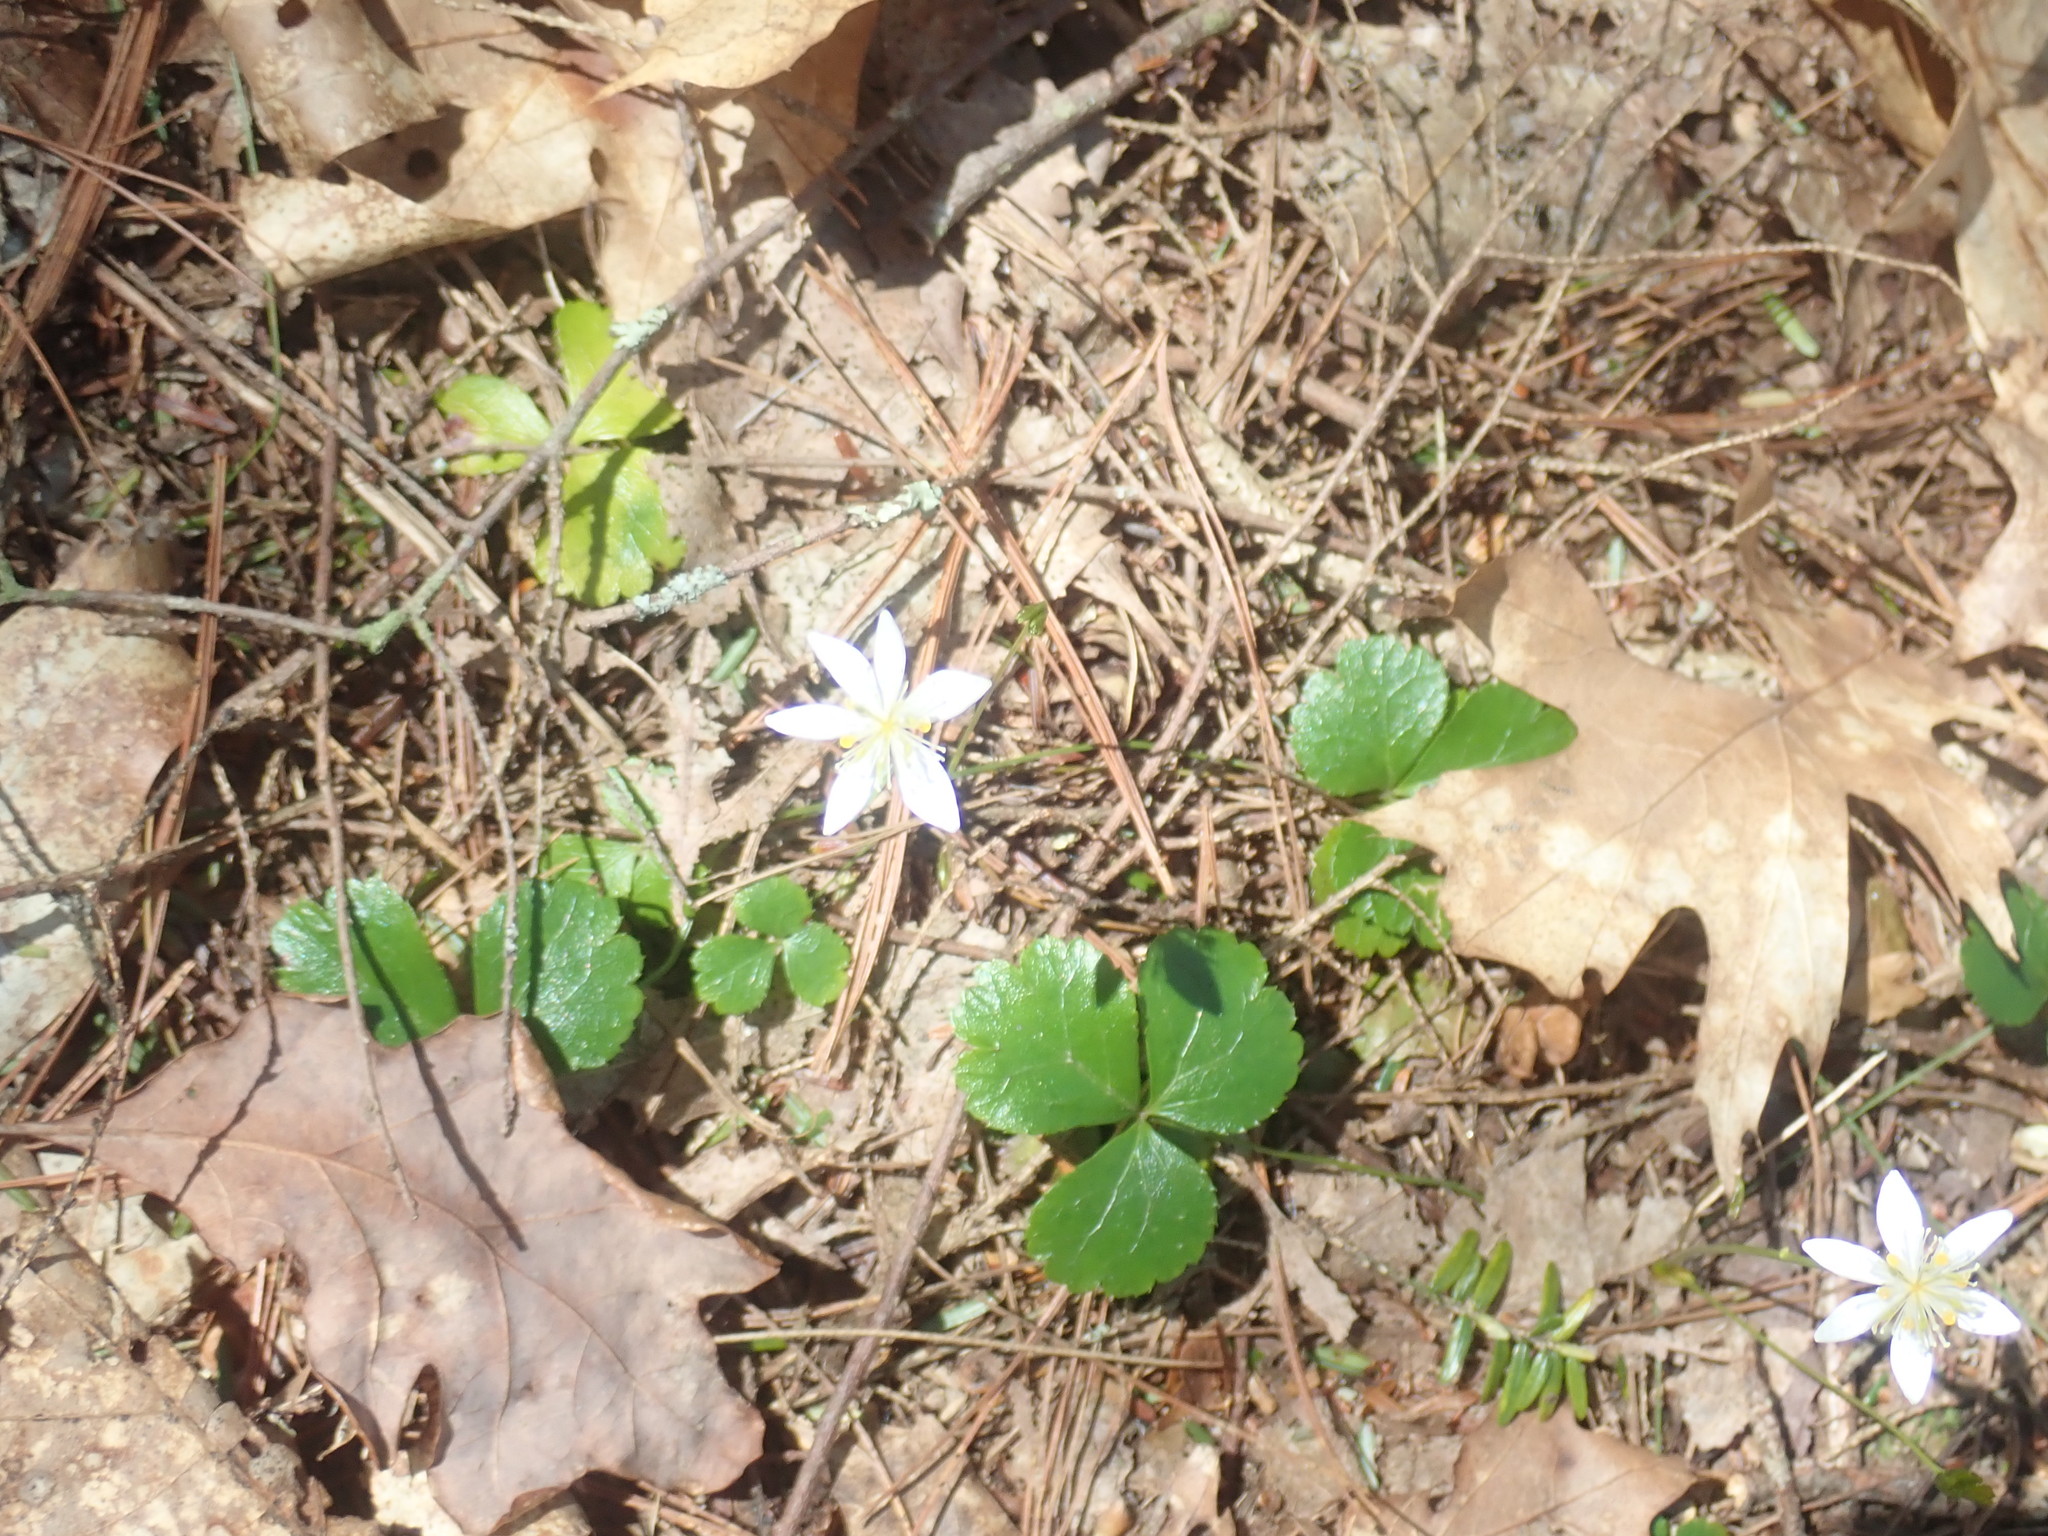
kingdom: Plantae
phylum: Tracheophyta
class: Magnoliopsida
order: Ranunculales
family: Ranunculaceae
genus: Coptis
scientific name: Coptis trifolia
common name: Canker-root
